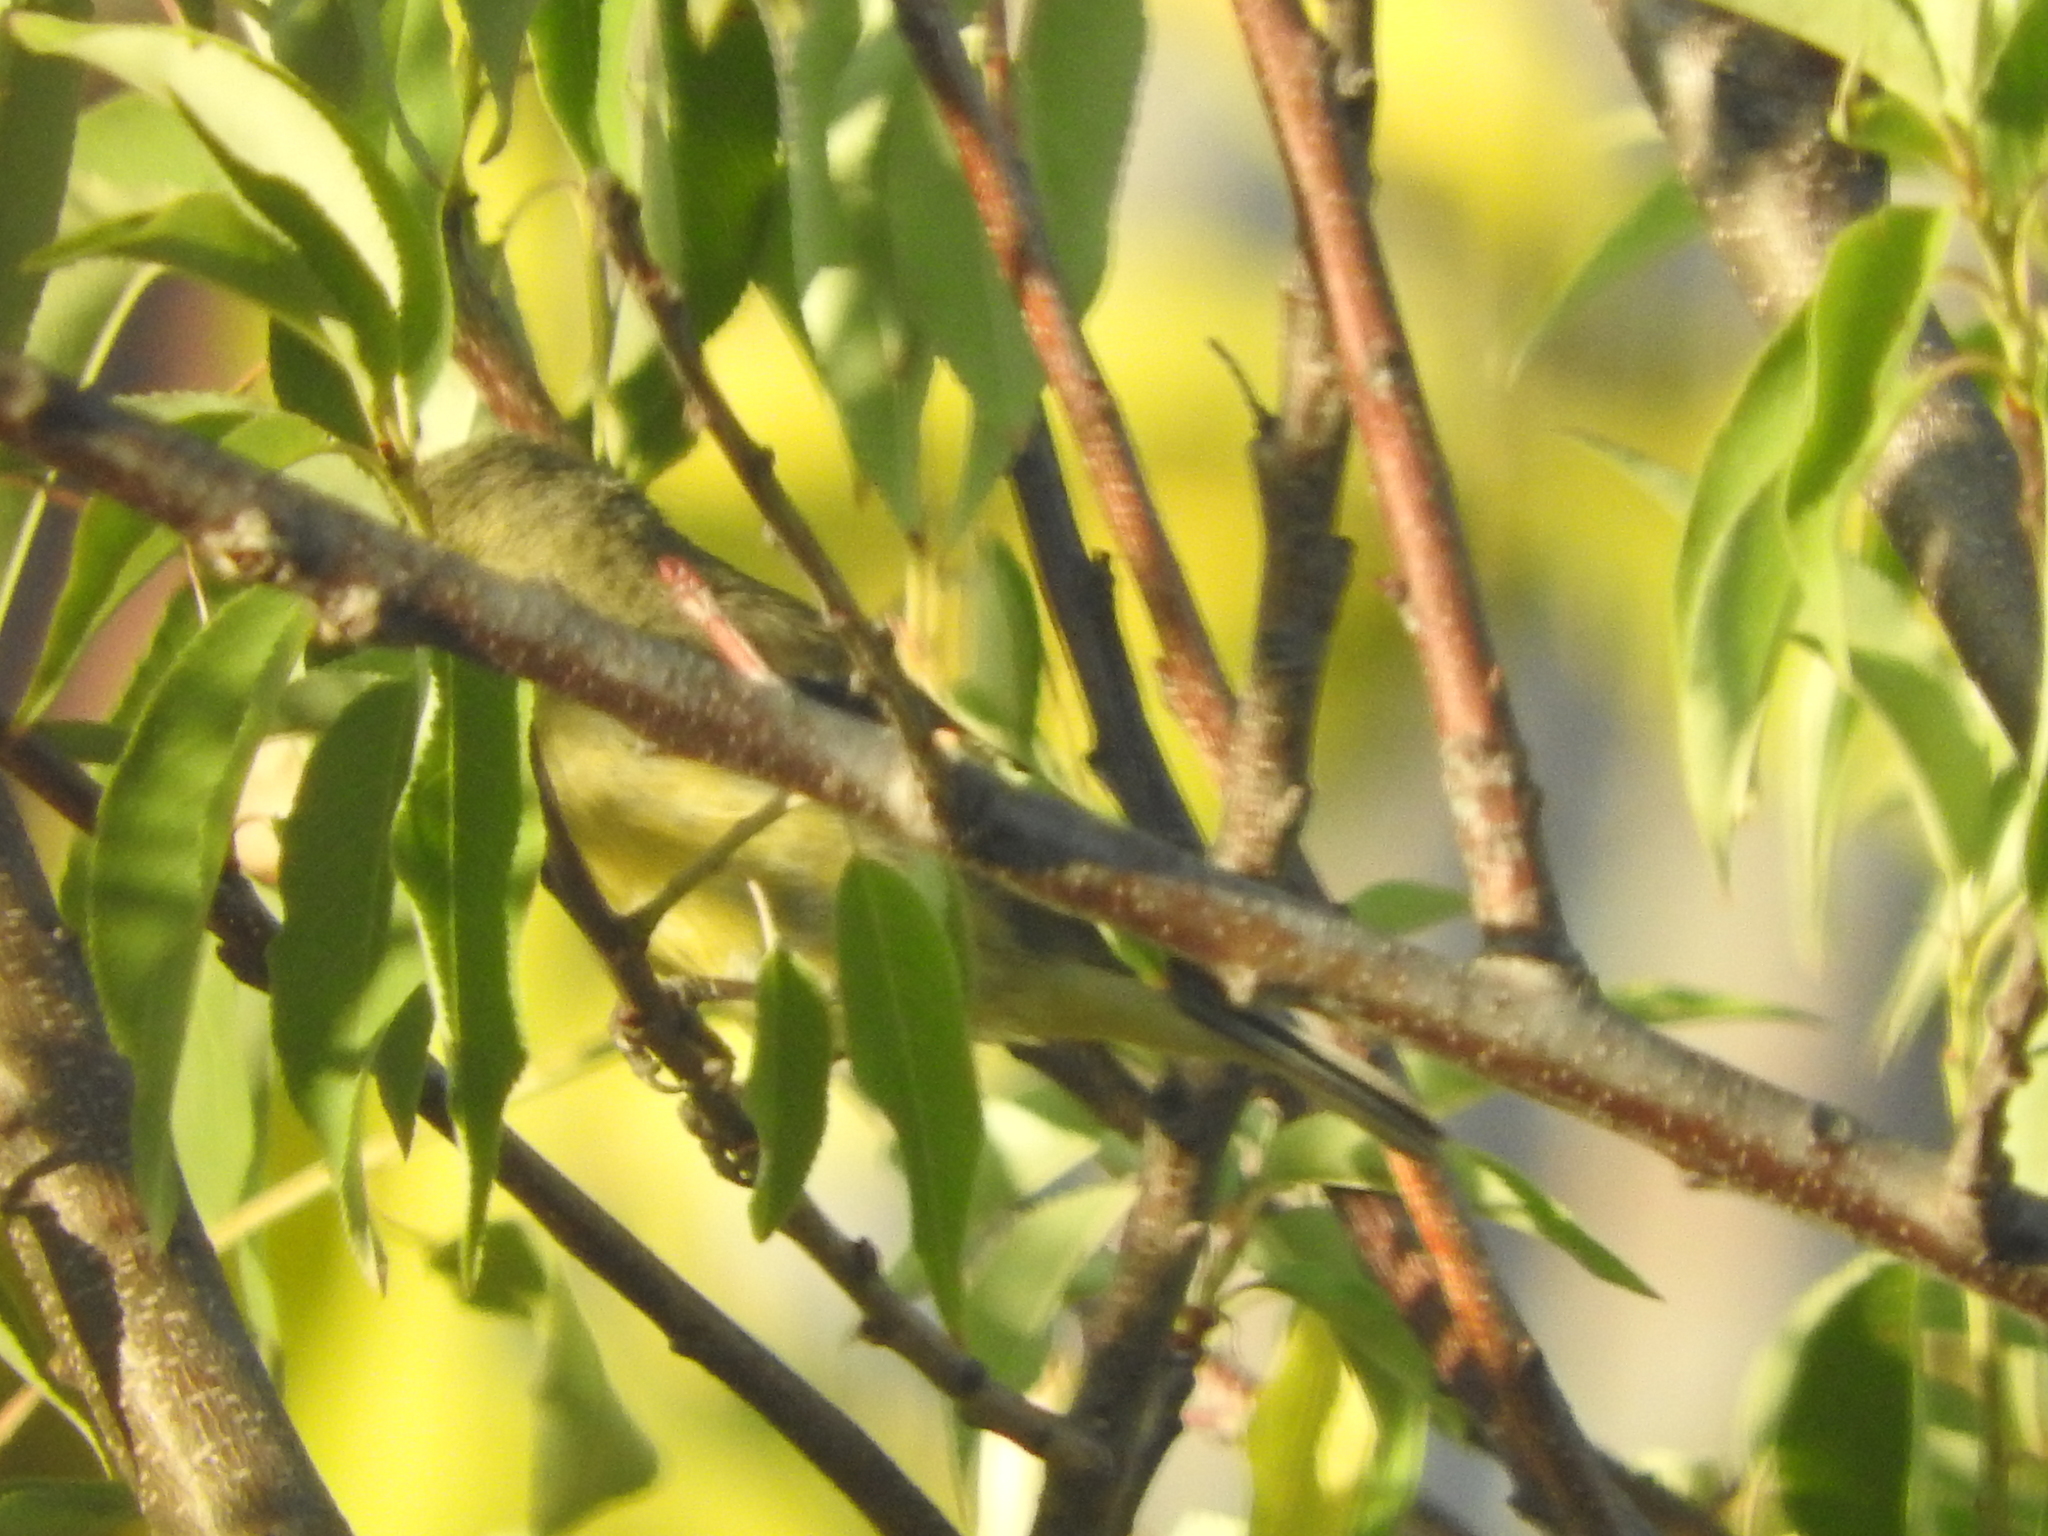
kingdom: Animalia
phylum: Chordata
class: Aves
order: Passeriformes
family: Fringillidae
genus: Spinus
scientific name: Spinus psaltria
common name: Lesser goldfinch
